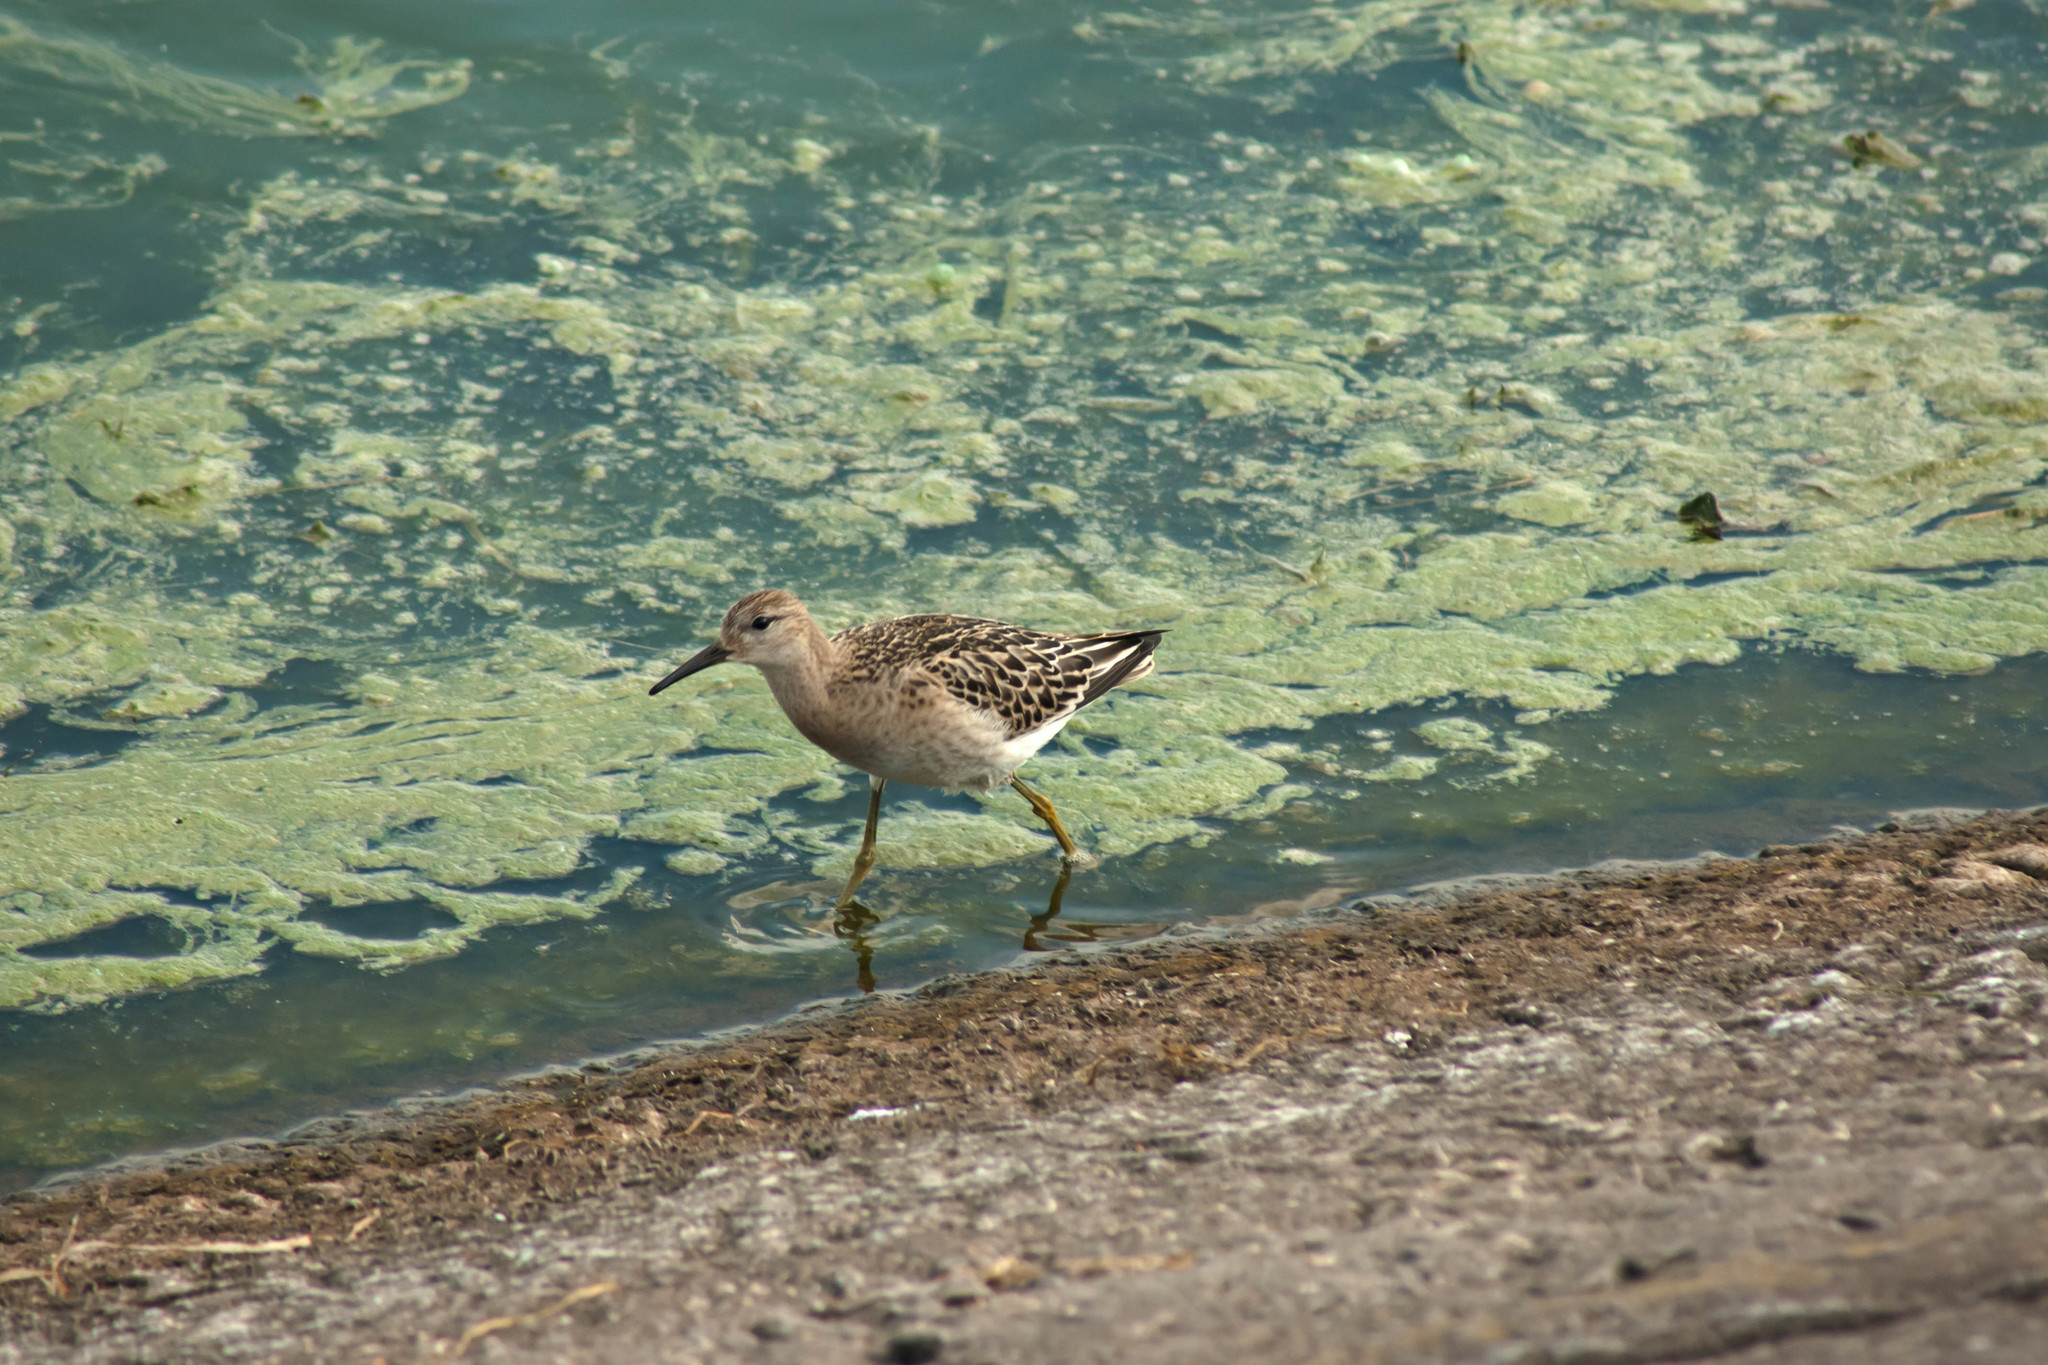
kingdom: Animalia
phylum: Chordata
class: Aves
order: Charadriiformes
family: Scolopacidae
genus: Calidris
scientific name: Calidris pugnax
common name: Ruff
